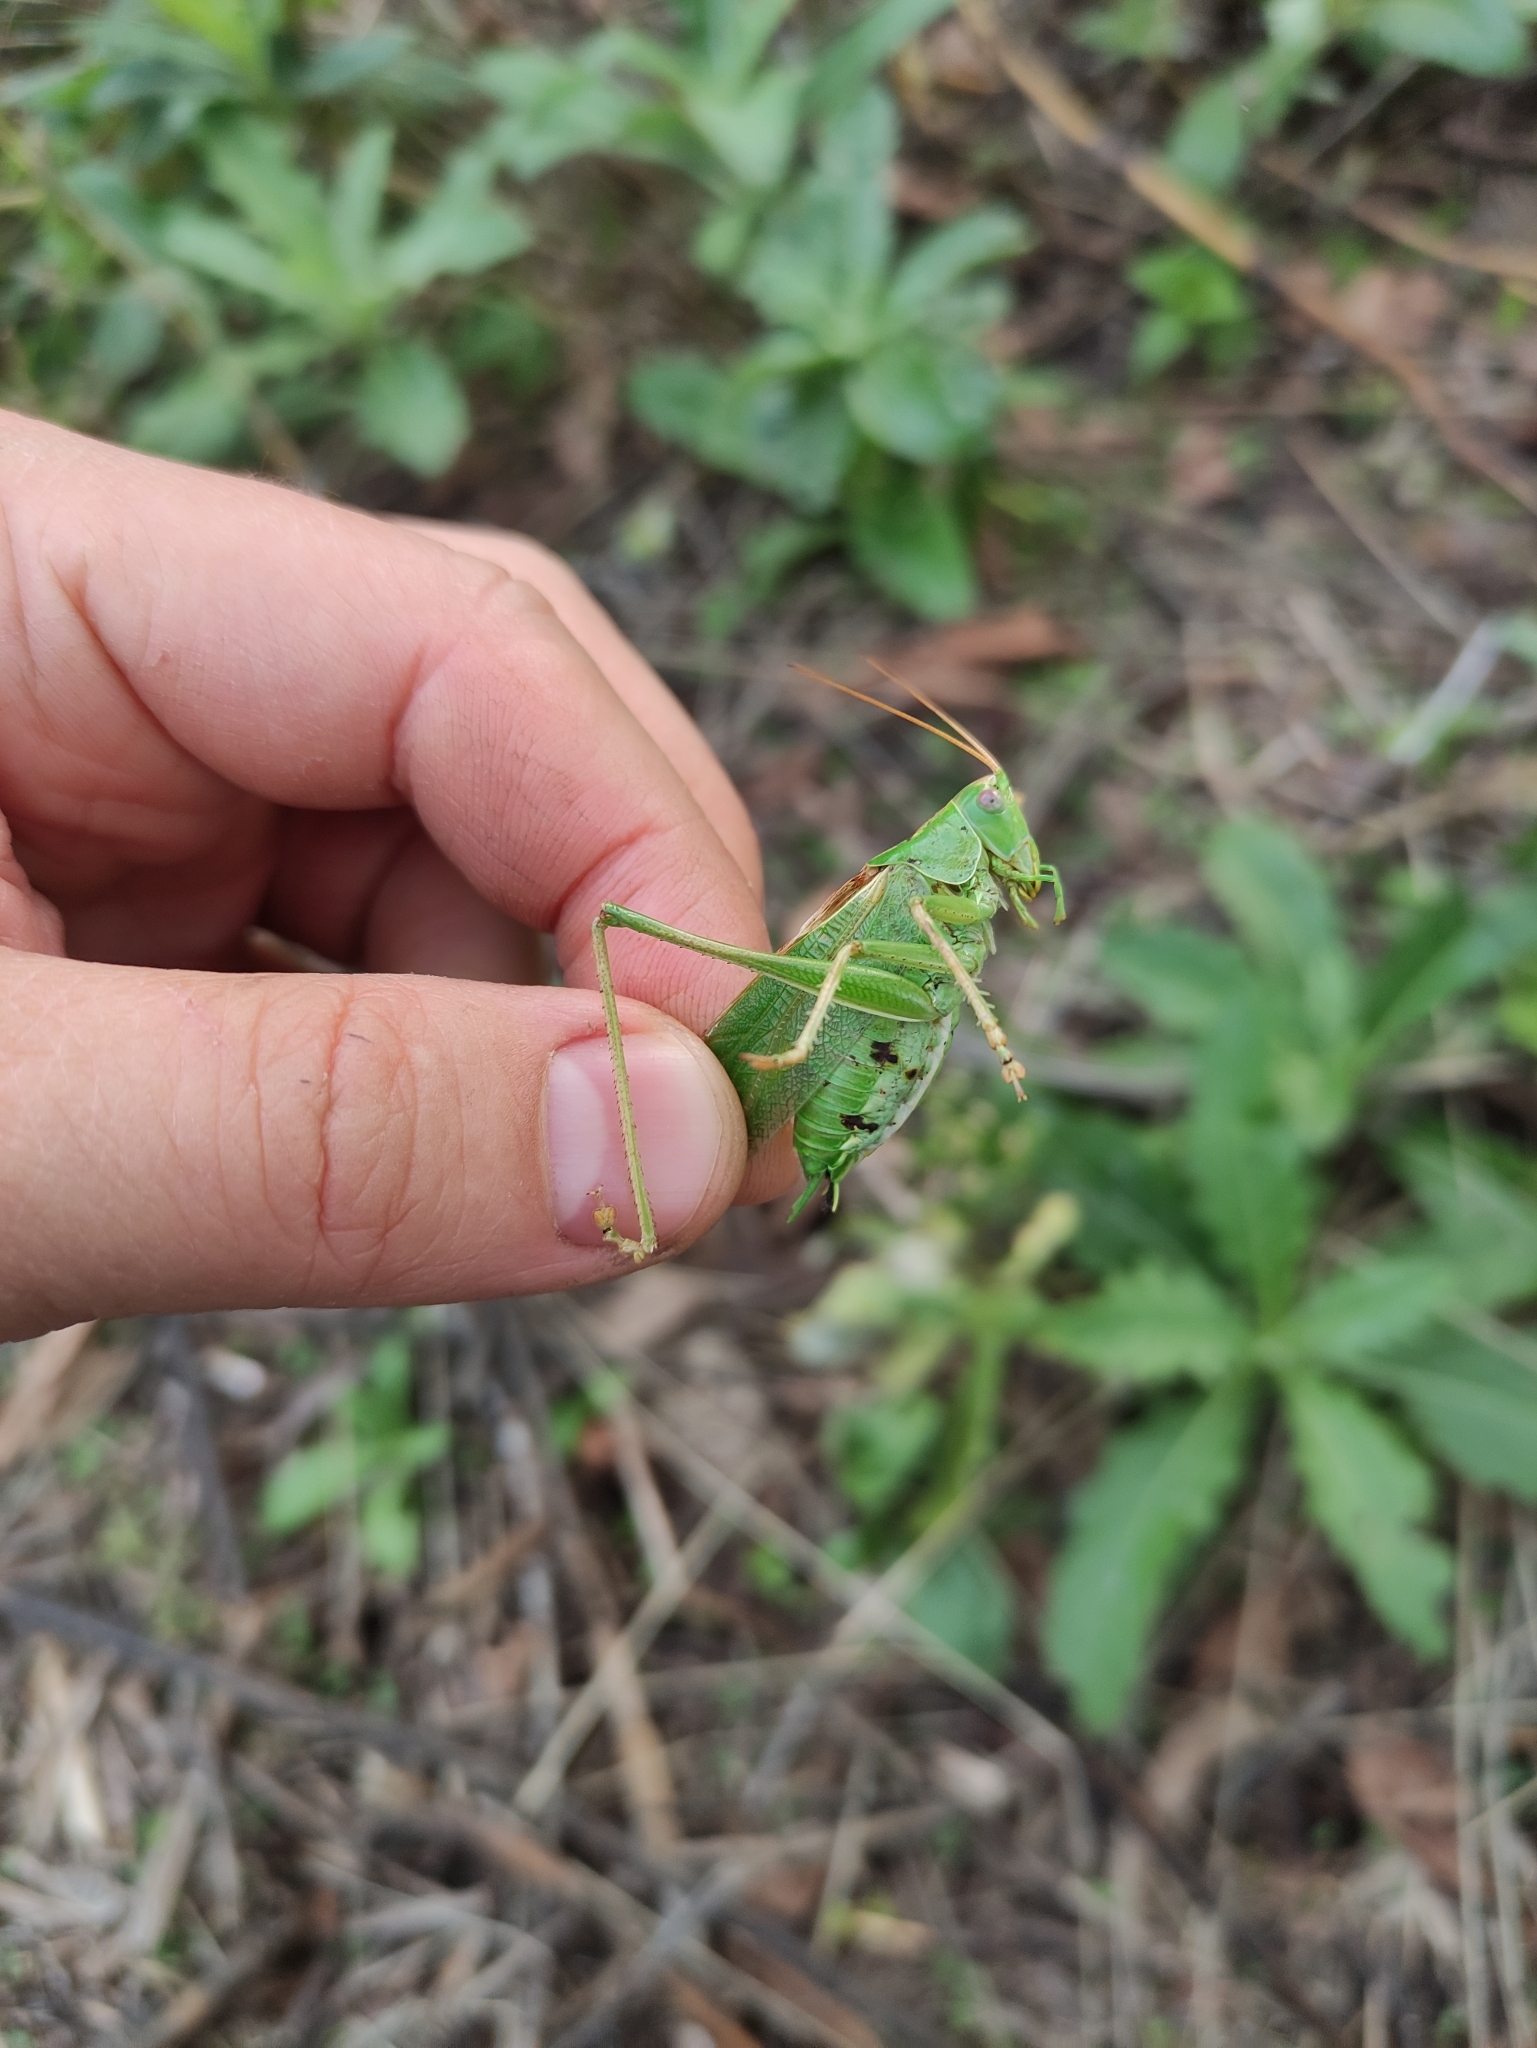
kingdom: Animalia
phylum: Arthropoda
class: Insecta
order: Orthoptera
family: Tettigoniidae
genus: Tettigonia
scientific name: Tettigonia viridissima
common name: Great green bush-cricket
